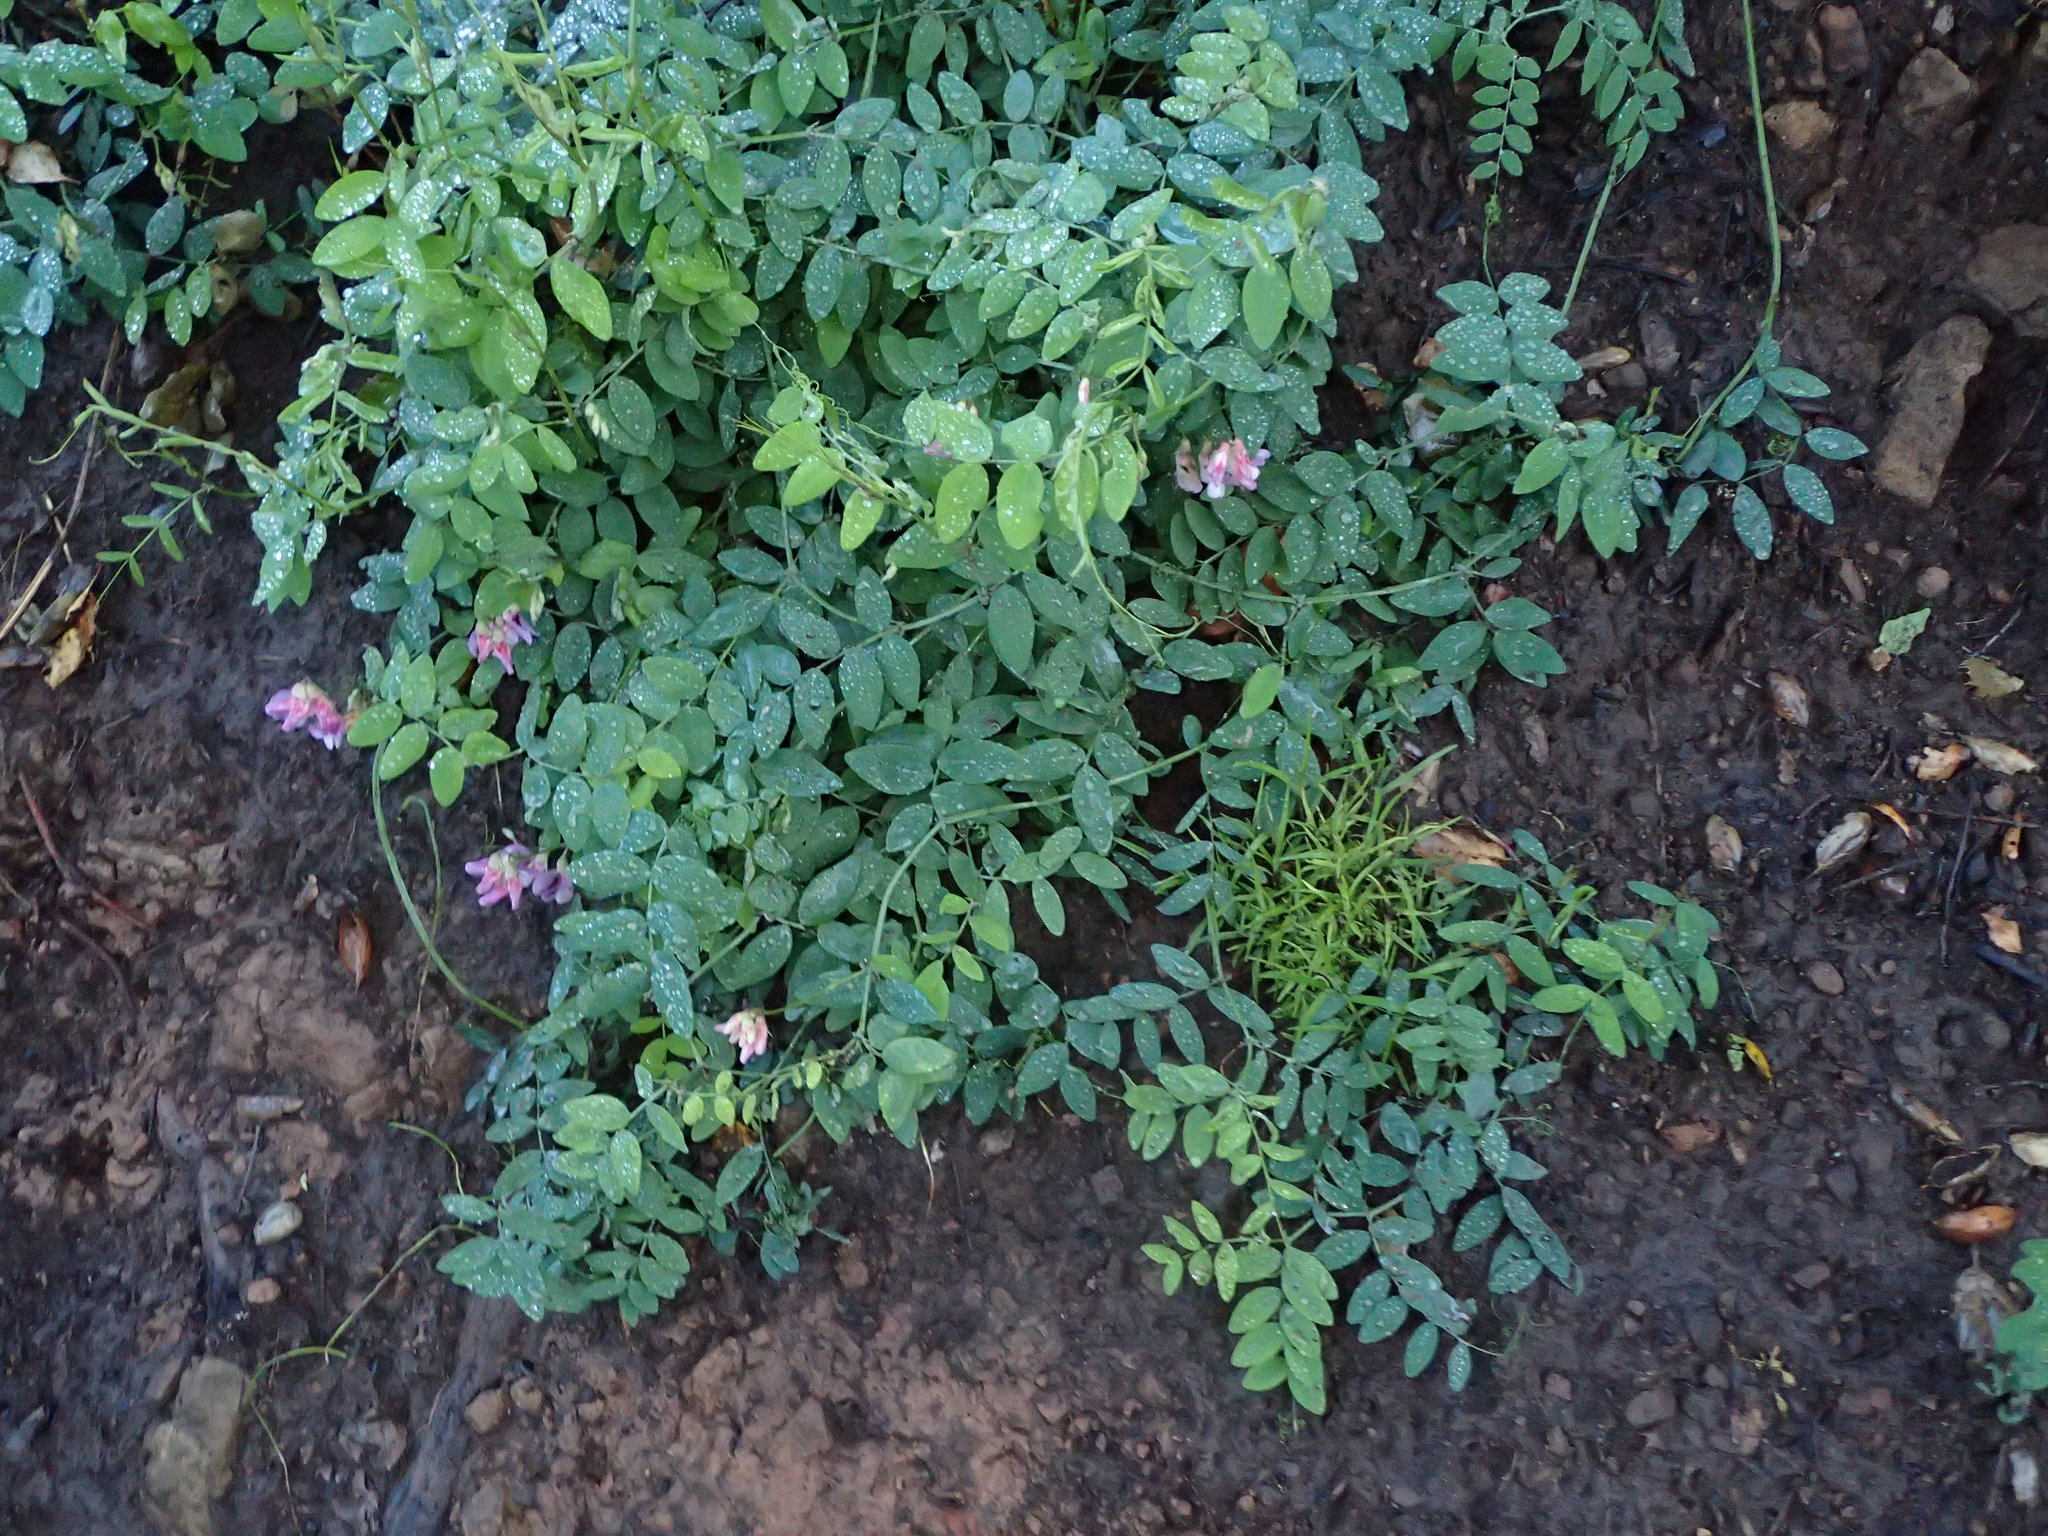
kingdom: Plantae
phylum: Tracheophyta
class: Magnoliopsida
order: Fabales
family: Fabaceae
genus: Lathyrus
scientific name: Lathyrus vestitus
